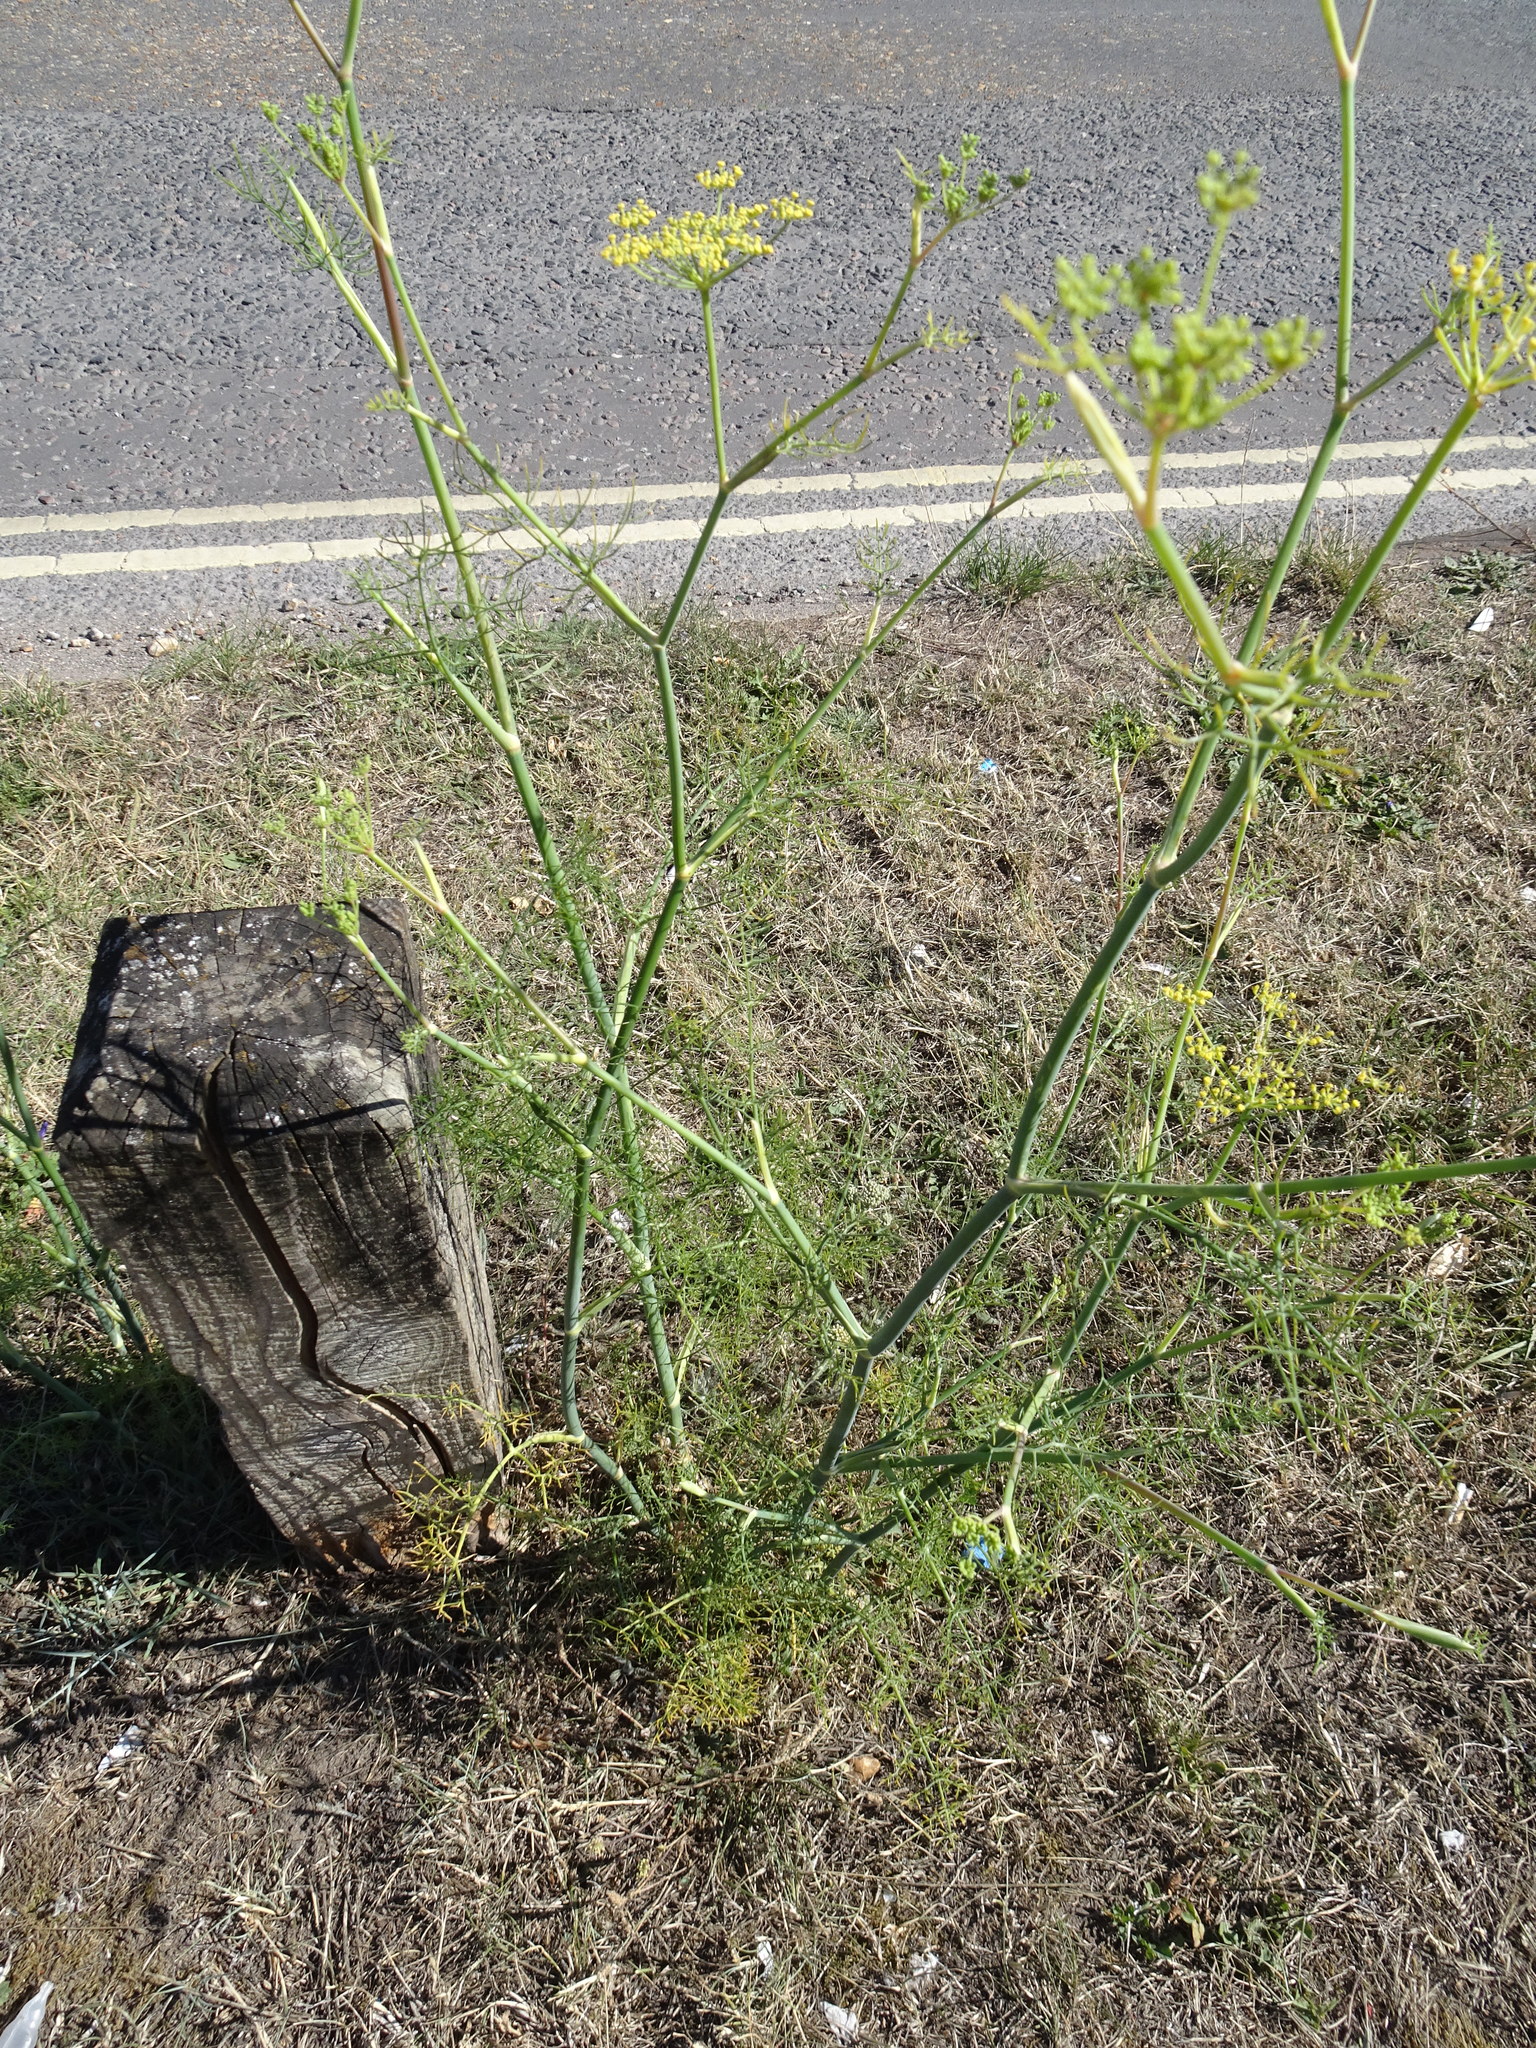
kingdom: Plantae
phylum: Tracheophyta
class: Magnoliopsida
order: Apiales
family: Apiaceae
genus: Foeniculum
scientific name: Foeniculum vulgare
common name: Fennel
